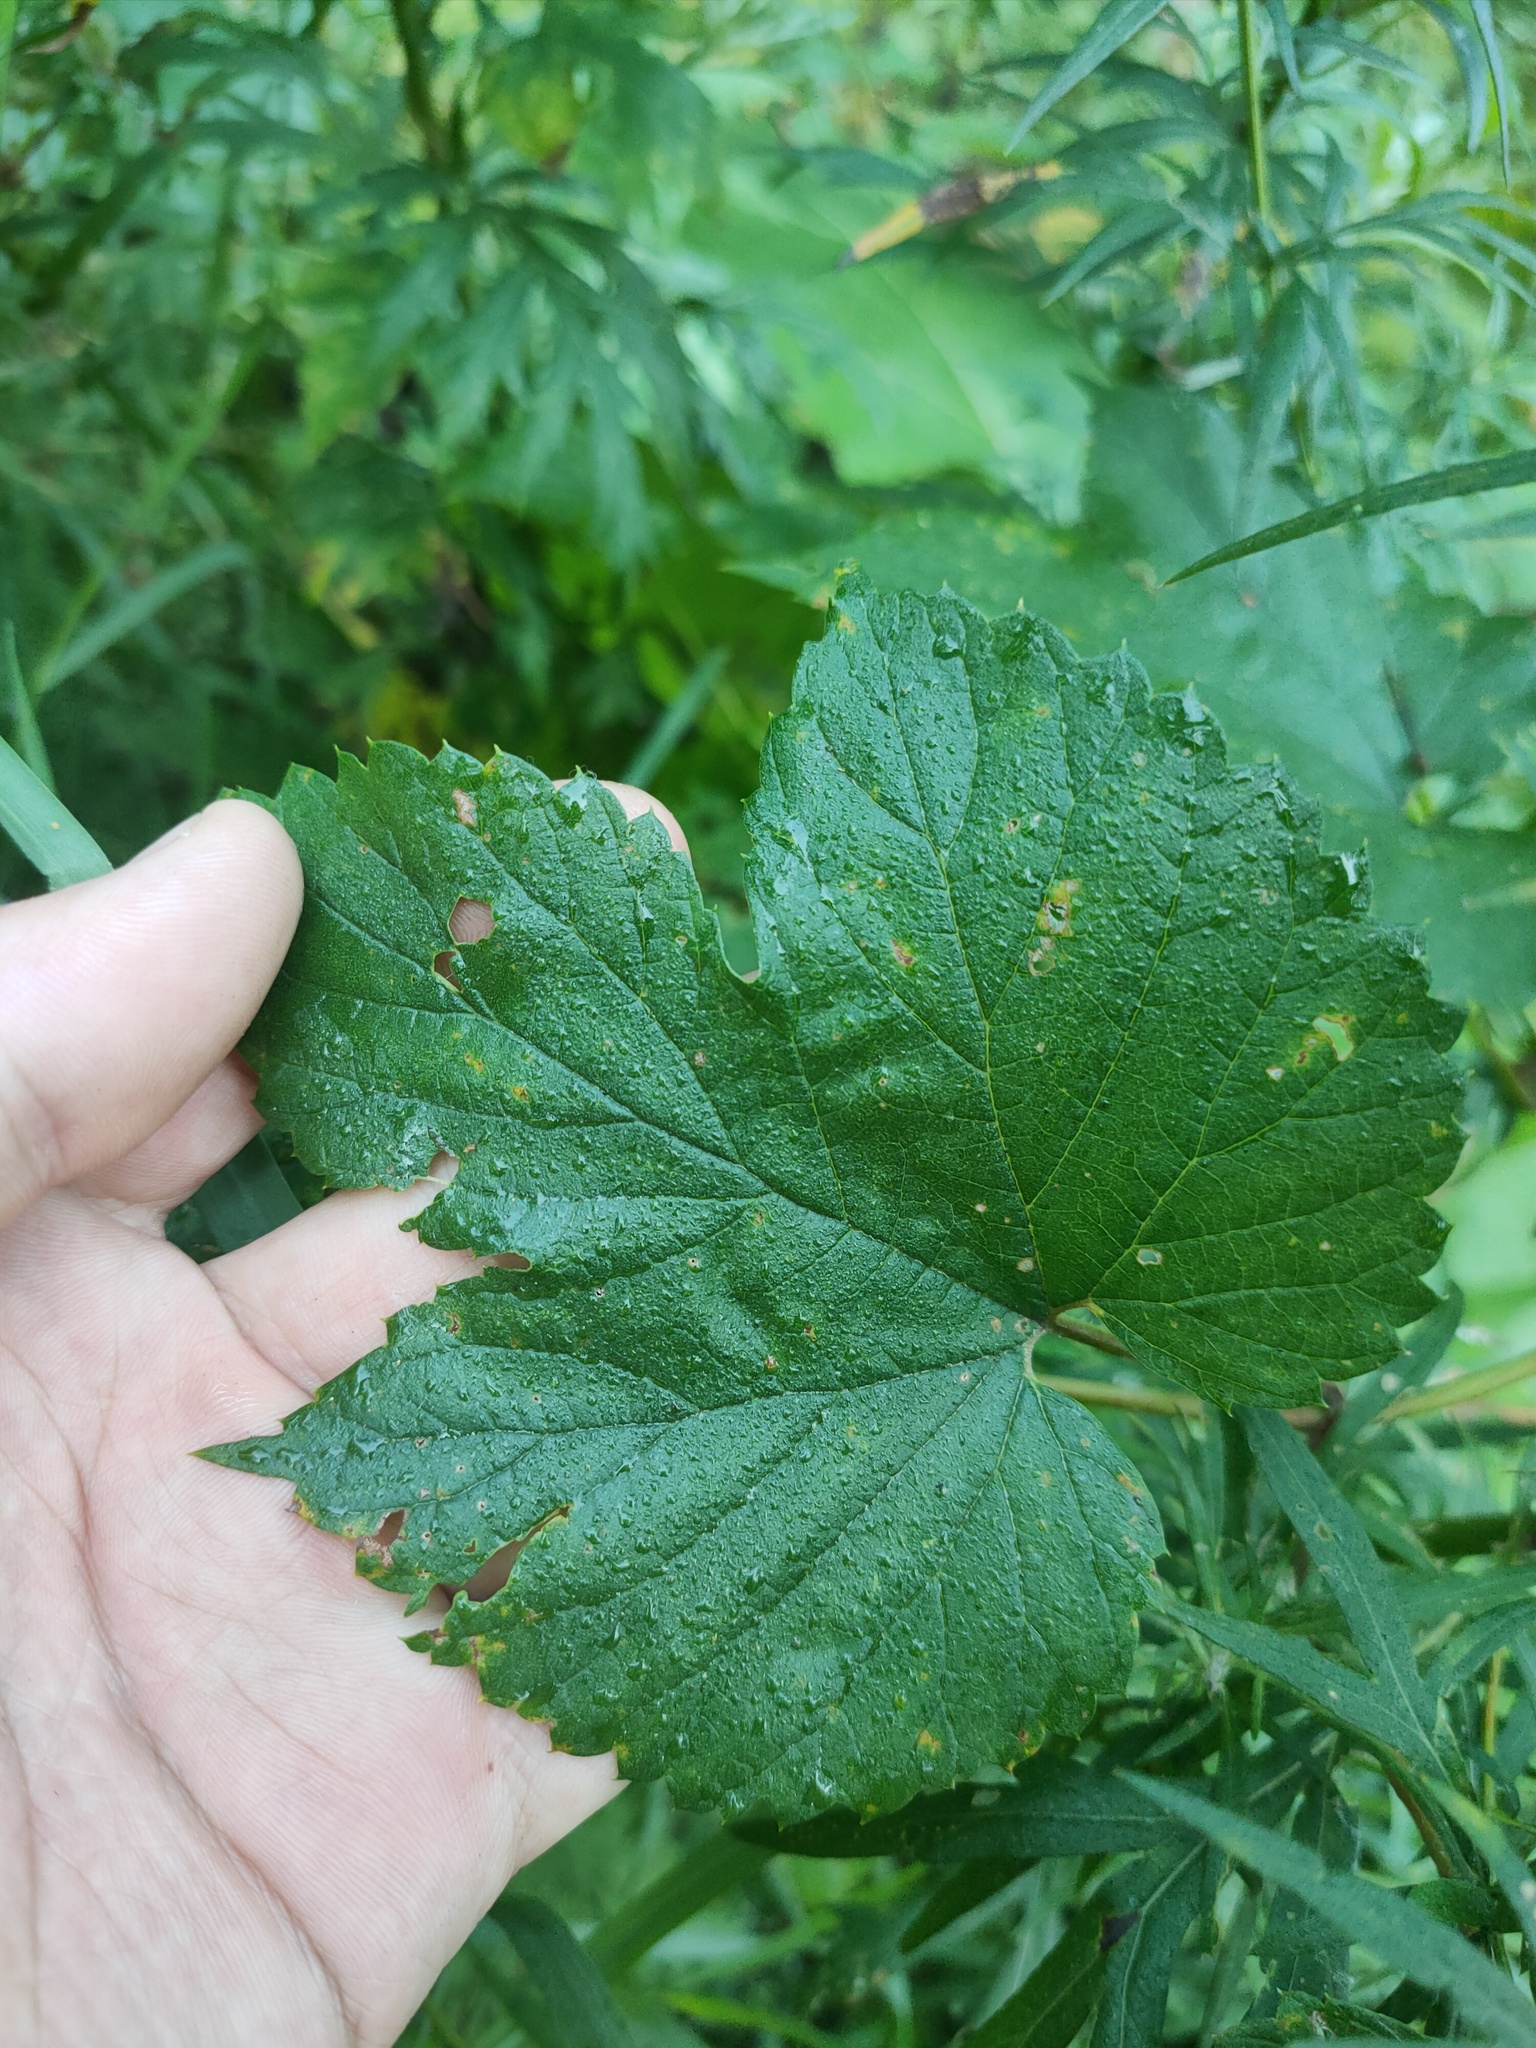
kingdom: Plantae
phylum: Tracheophyta
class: Magnoliopsida
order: Rosales
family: Cannabaceae
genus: Humulus
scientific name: Humulus lupulus
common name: Hop
